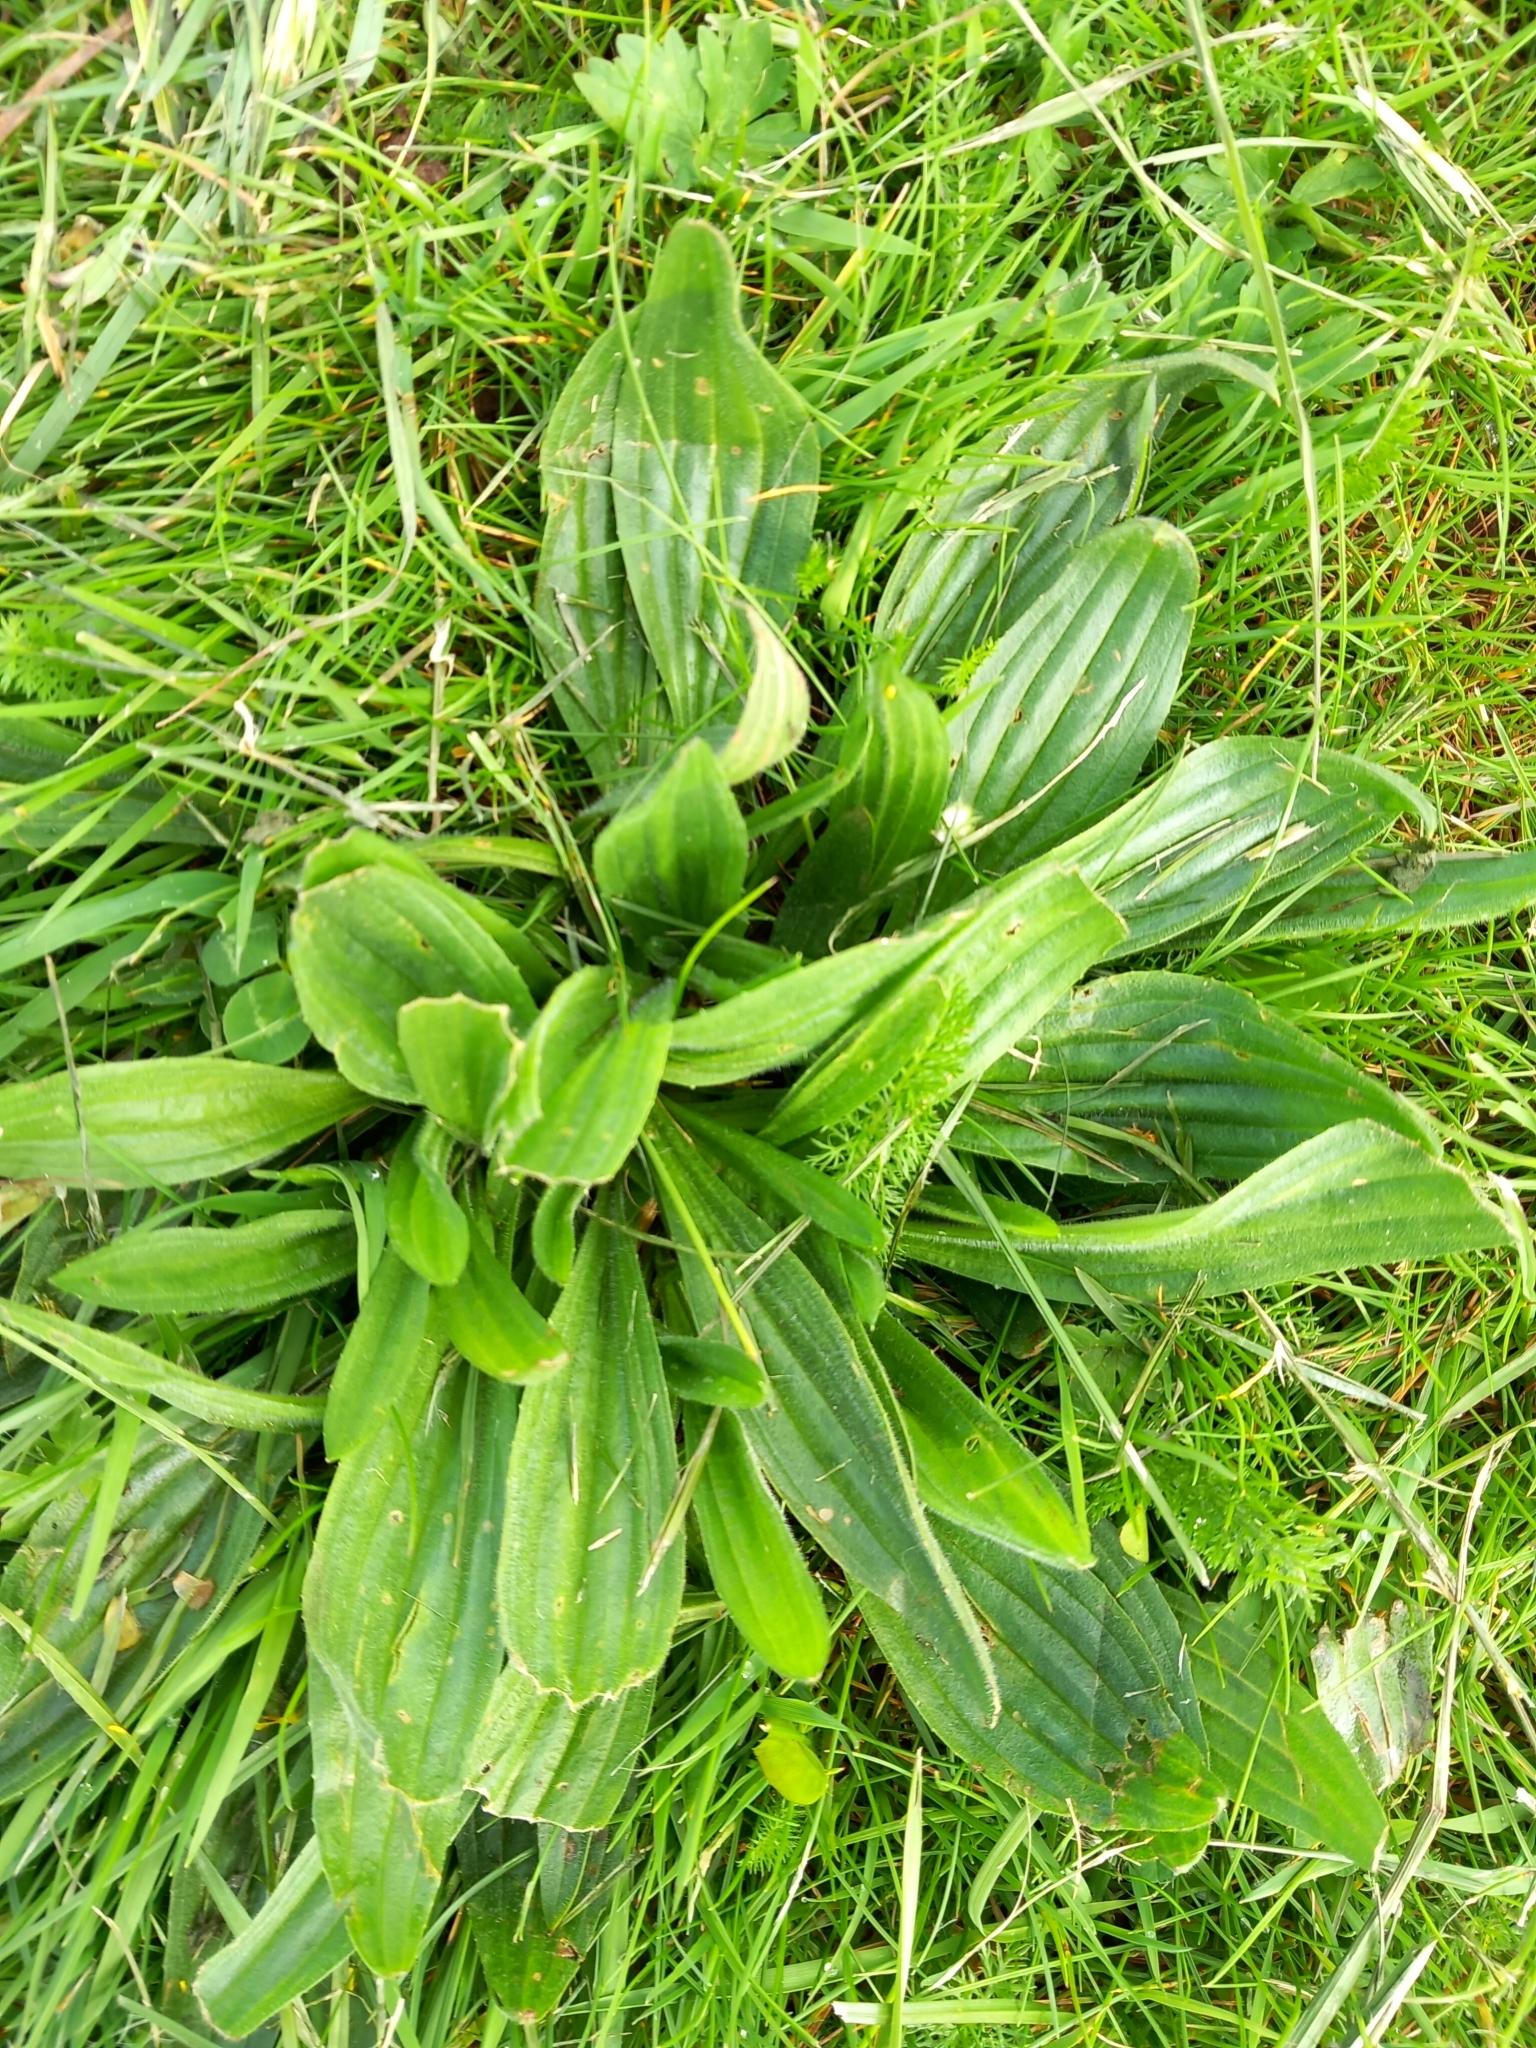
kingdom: Plantae
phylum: Tracheophyta
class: Magnoliopsida
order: Lamiales
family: Plantaginaceae
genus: Plantago
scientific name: Plantago lanceolata
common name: Ribwort plantain
